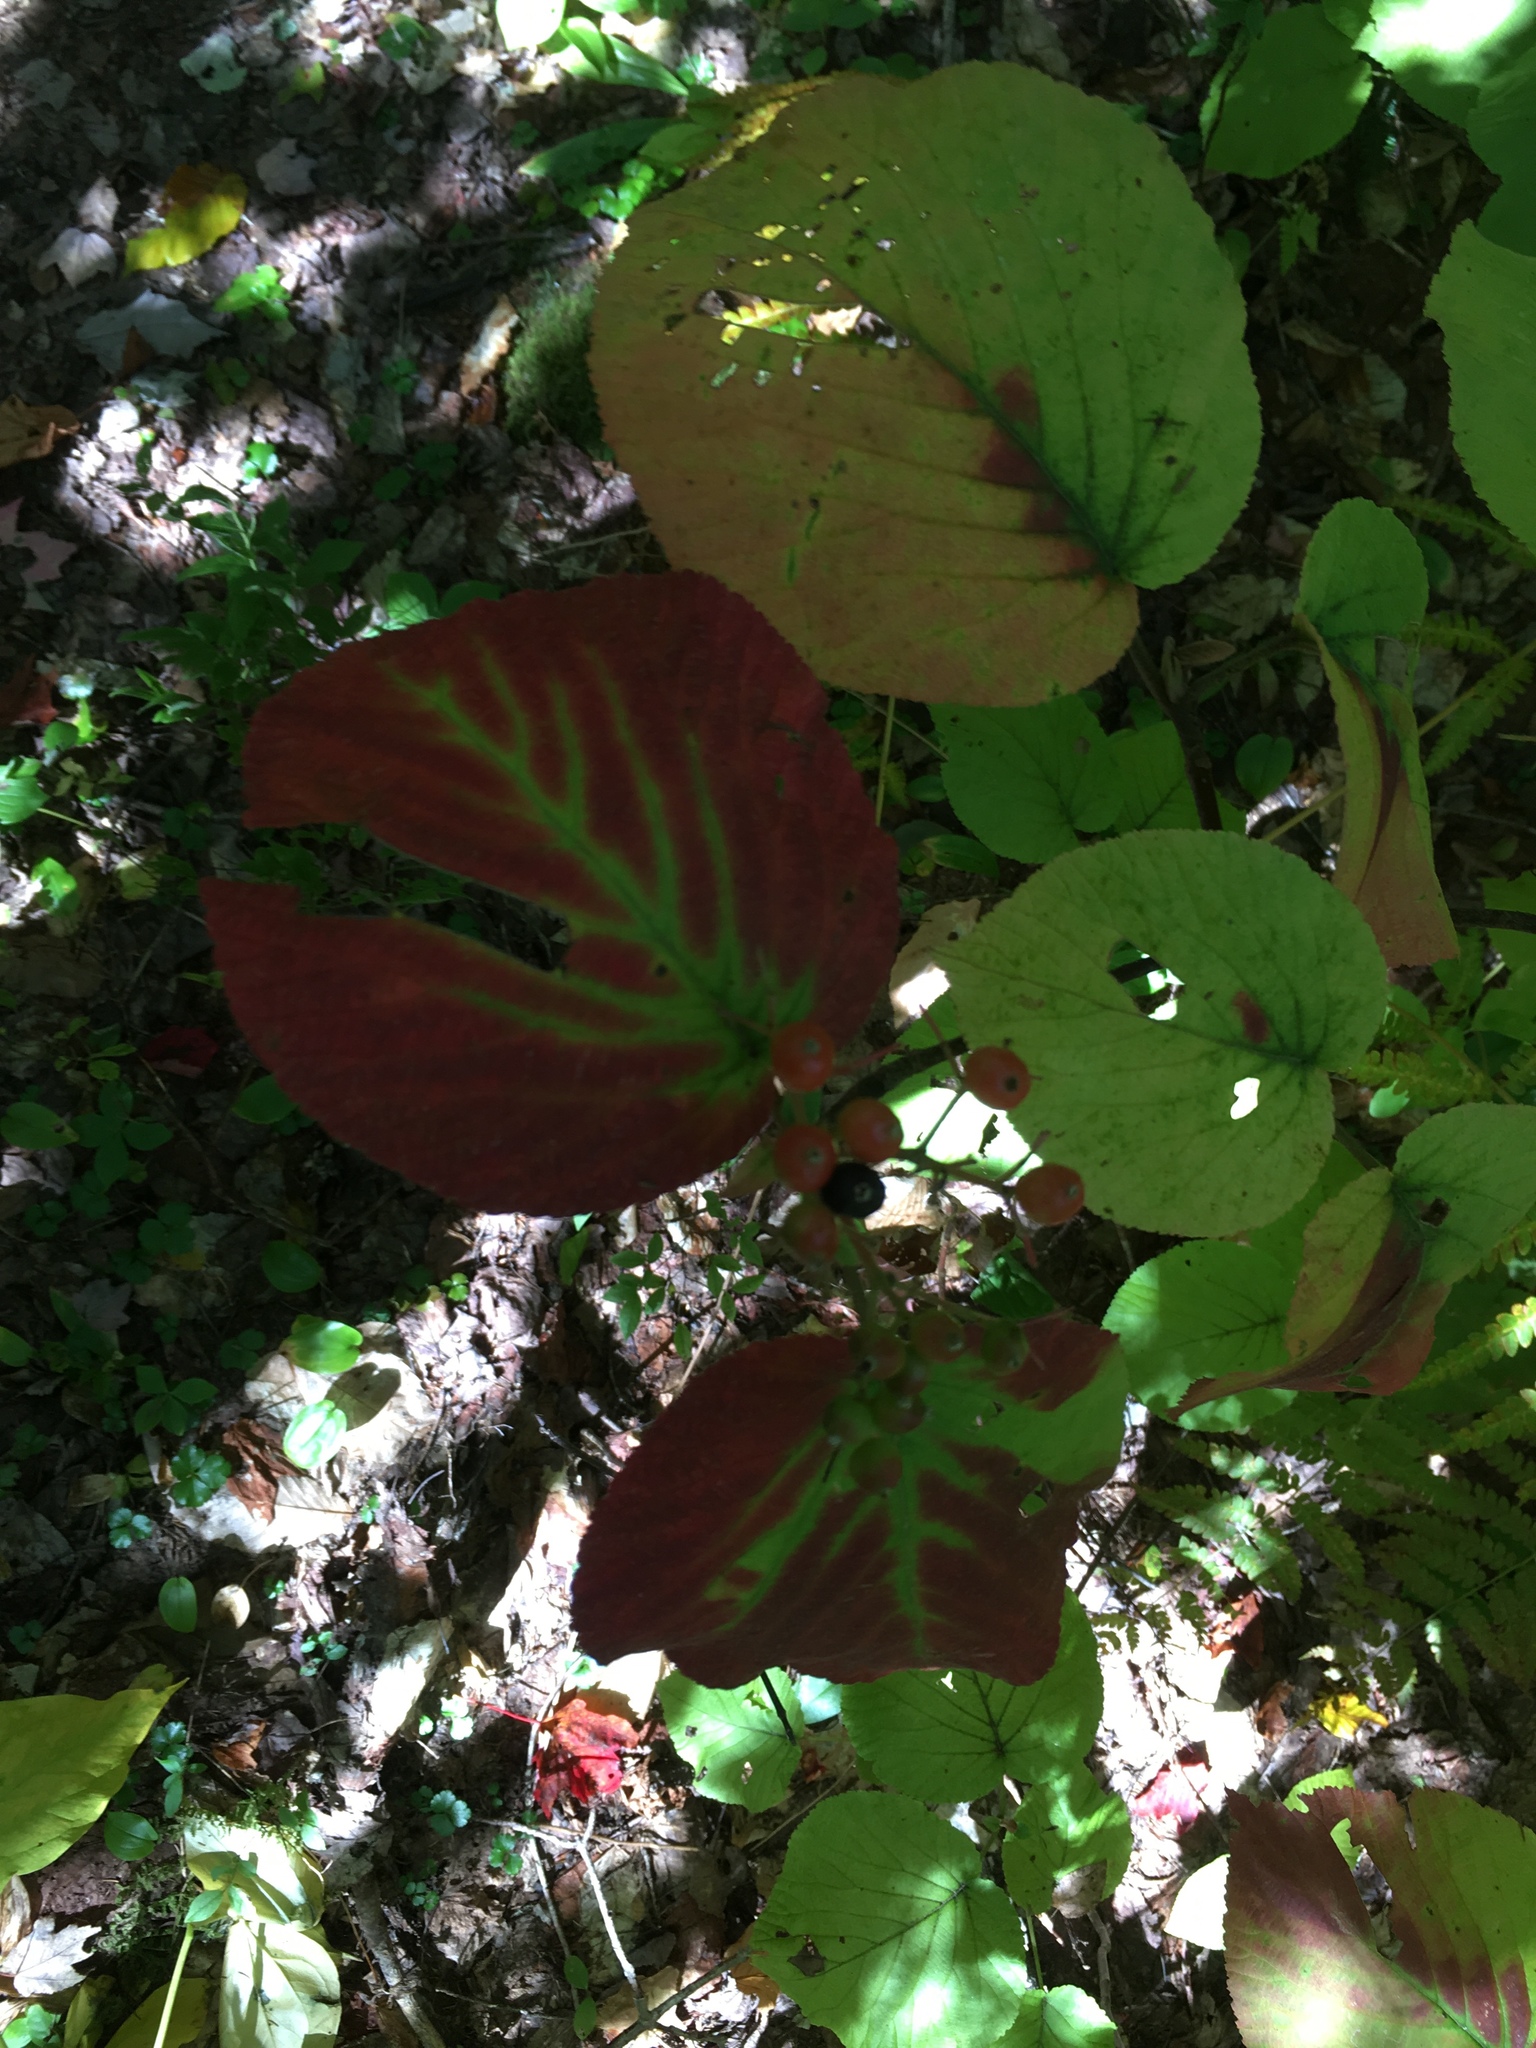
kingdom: Plantae
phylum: Tracheophyta
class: Magnoliopsida
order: Dipsacales
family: Viburnaceae
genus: Viburnum
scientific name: Viburnum lantanoides
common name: Hobblebush
